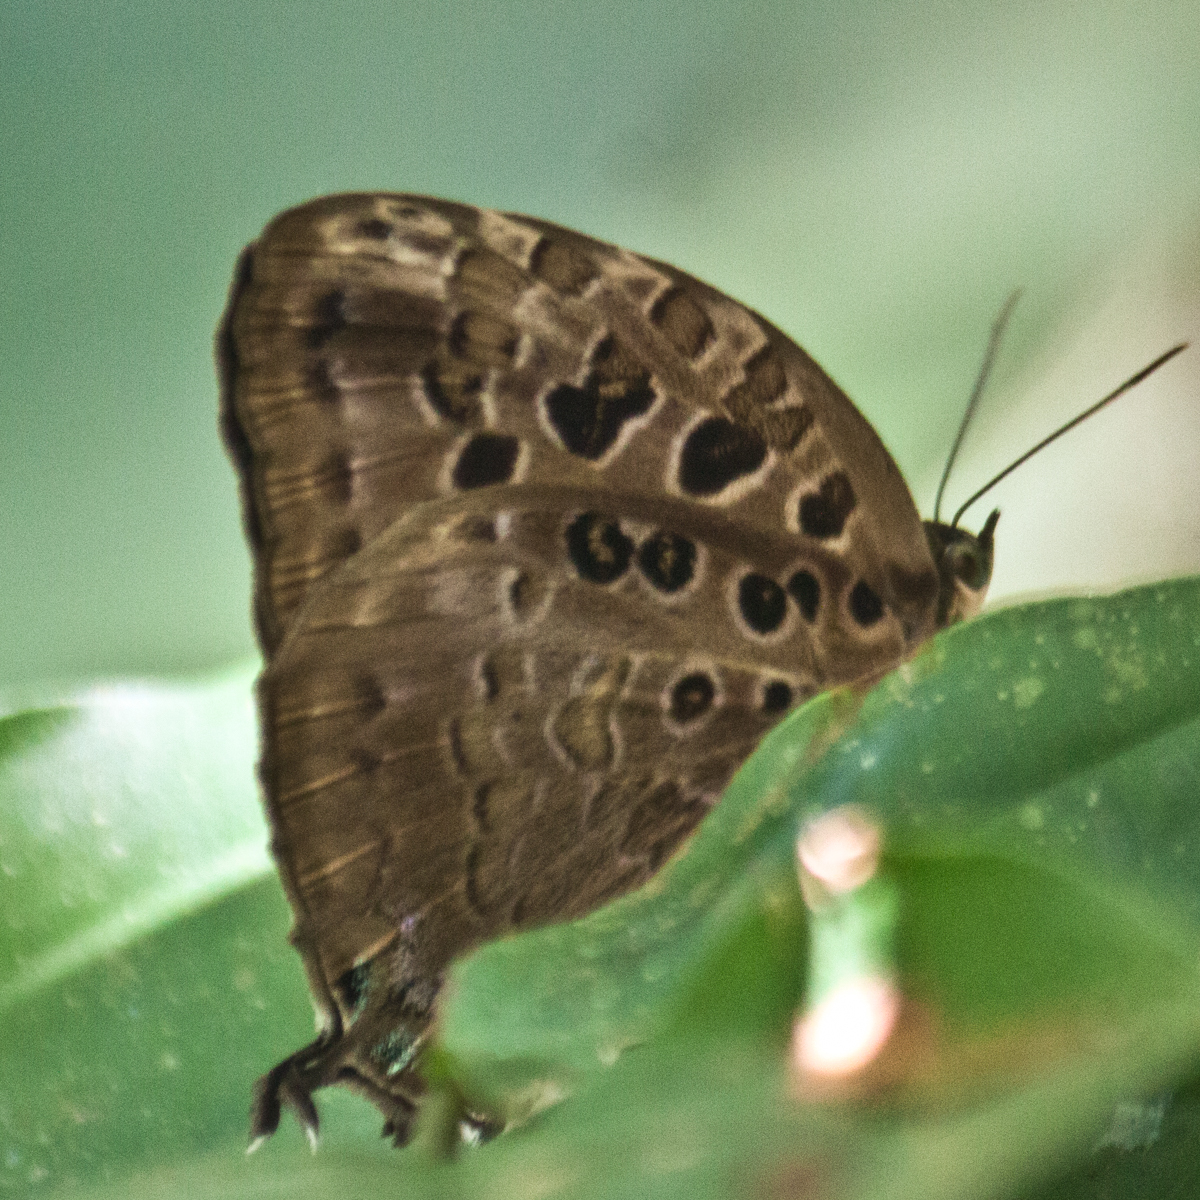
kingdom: Animalia
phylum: Arthropoda
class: Insecta
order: Lepidoptera
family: Lycaenidae
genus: Arhopala
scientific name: Arhopala anthelus
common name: Bushblue
